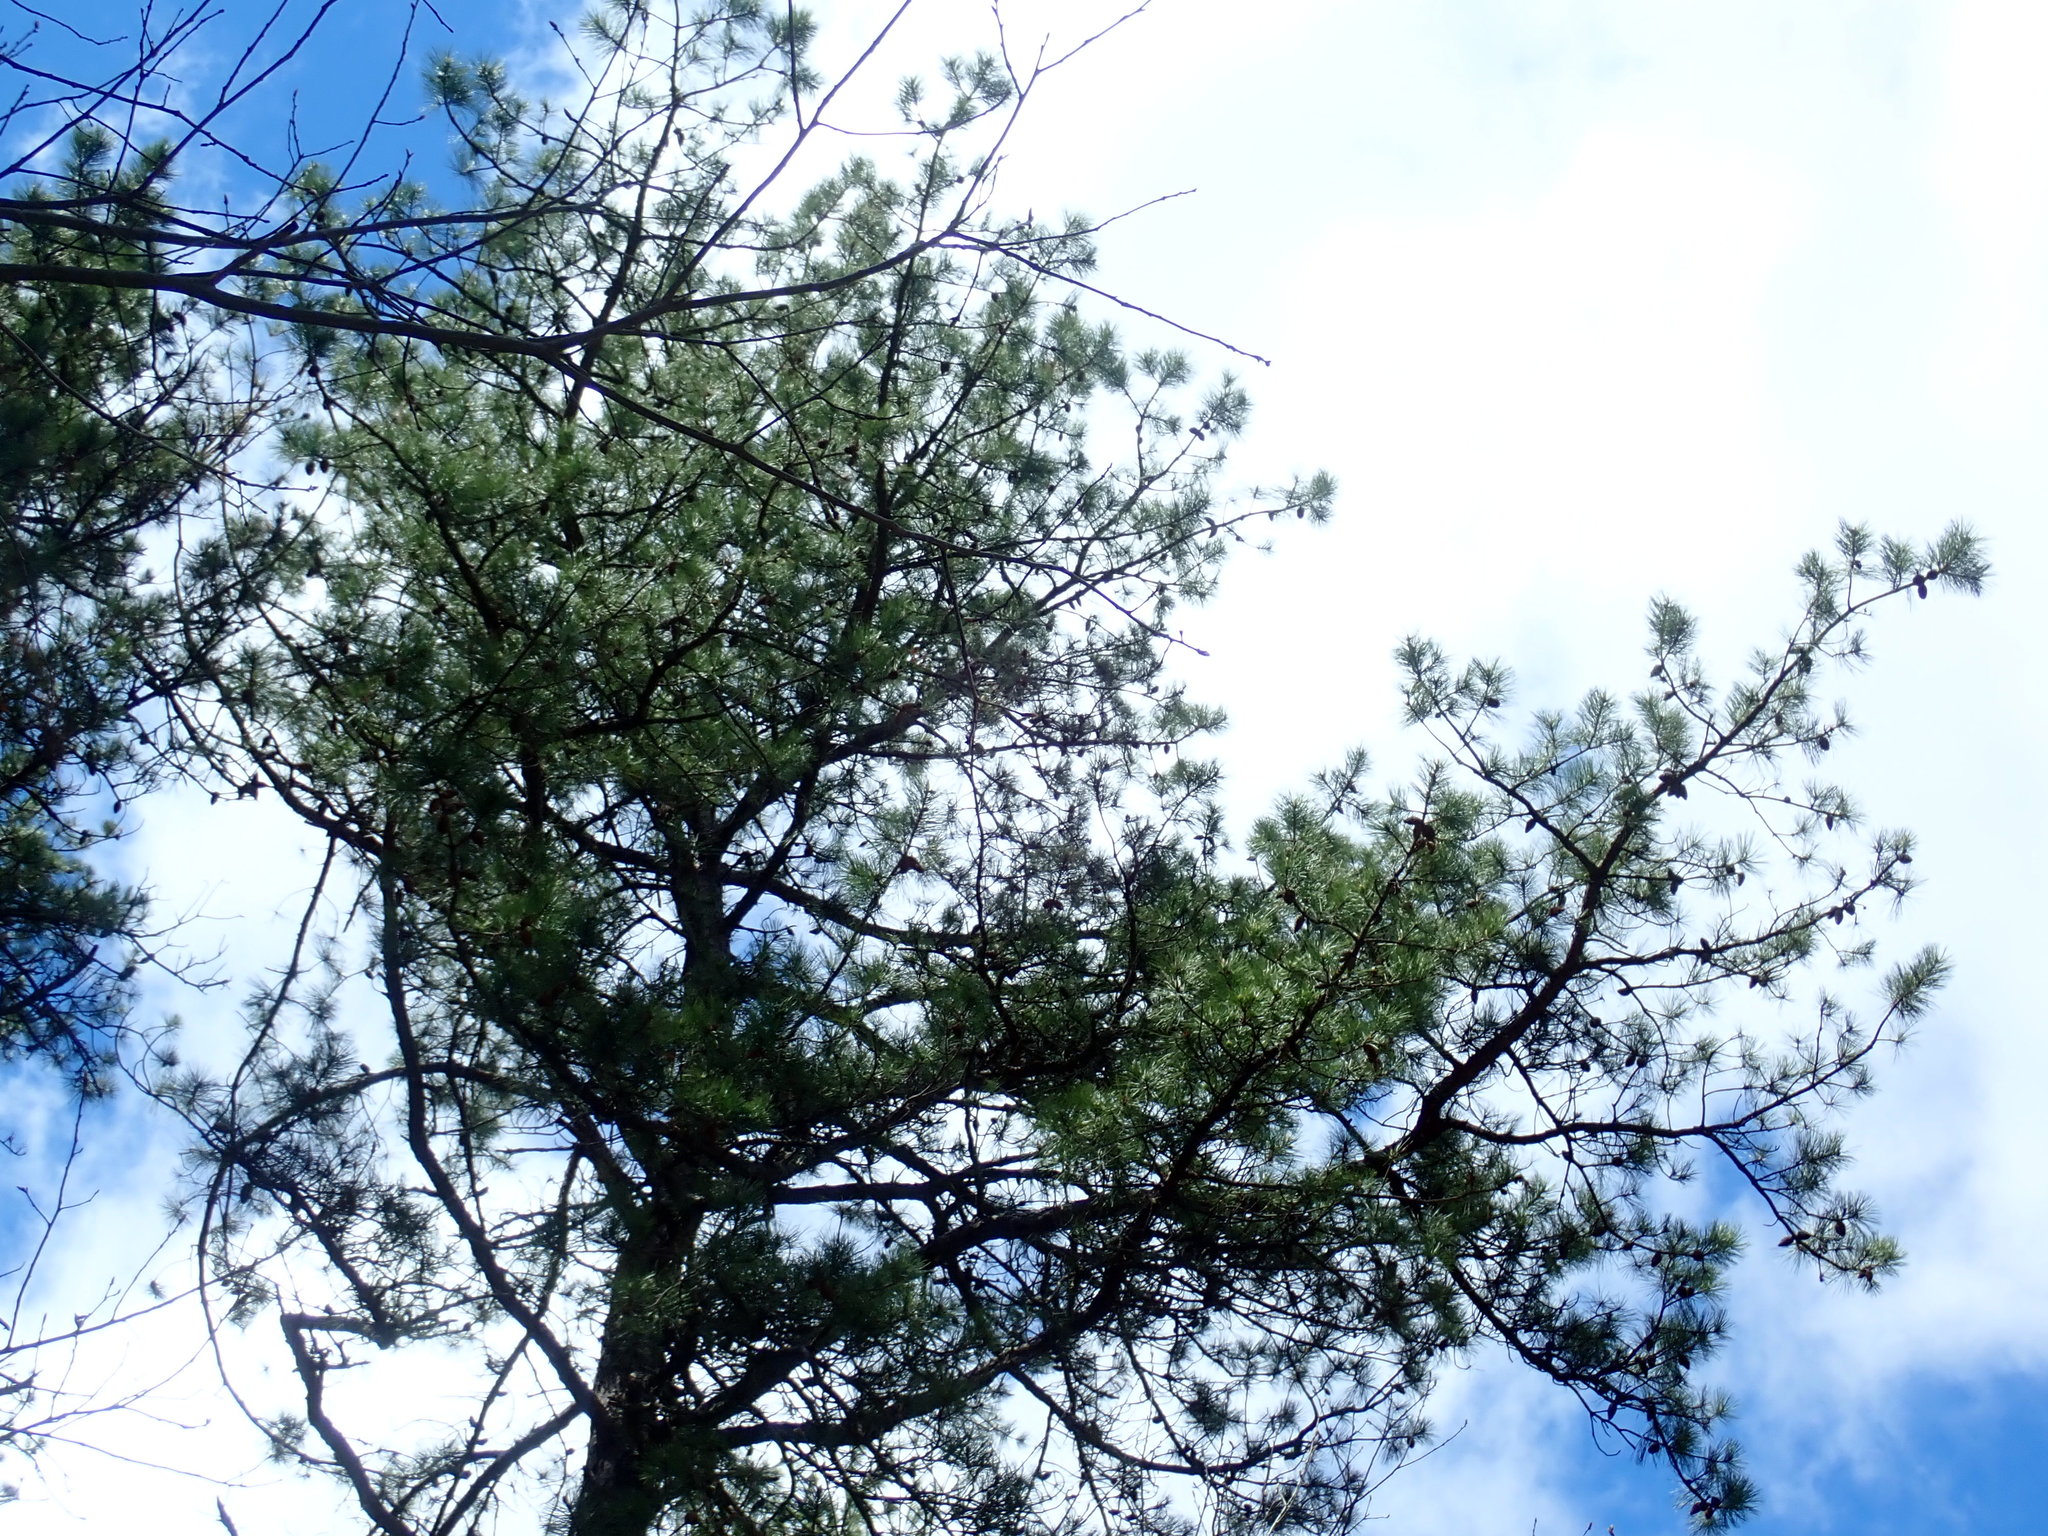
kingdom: Plantae
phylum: Tracheophyta
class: Pinopsida
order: Pinales
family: Pinaceae
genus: Pinus
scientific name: Pinus rigida
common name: Pitch pine
